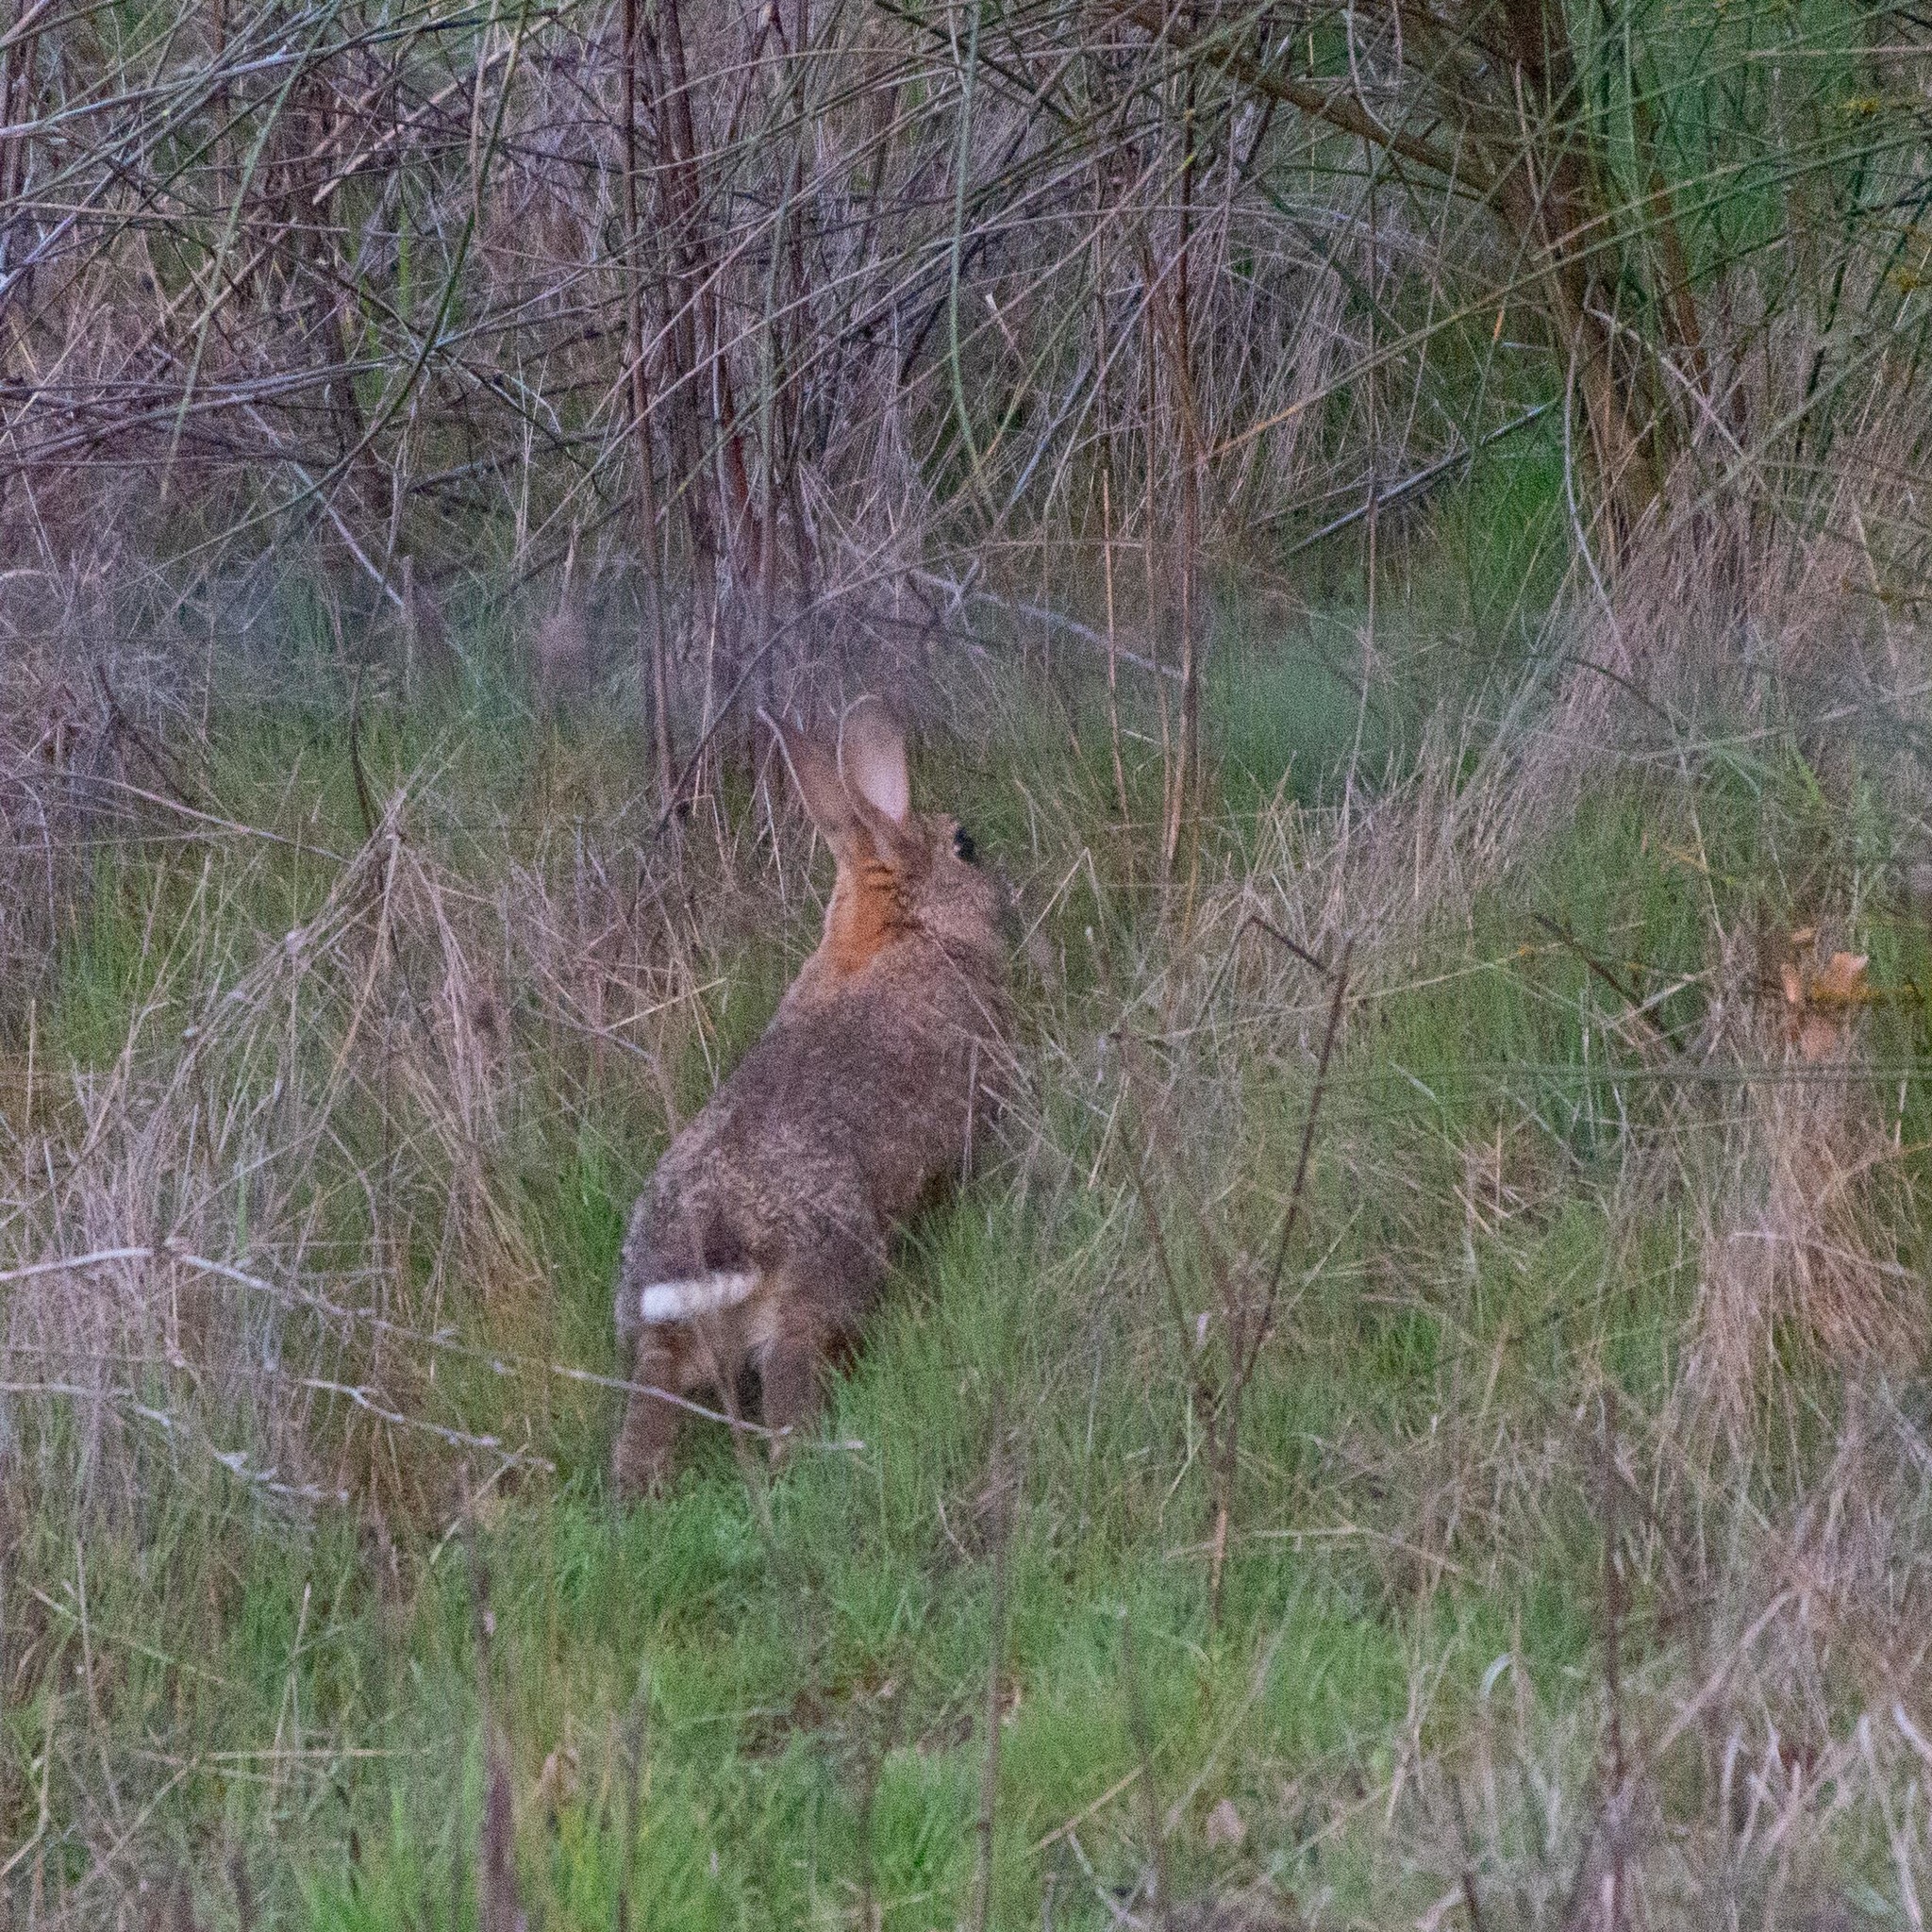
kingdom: Animalia
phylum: Chordata
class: Mammalia
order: Lagomorpha
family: Leporidae
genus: Oryctolagus
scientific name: Oryctolagus cuniculus
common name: European rabbit
